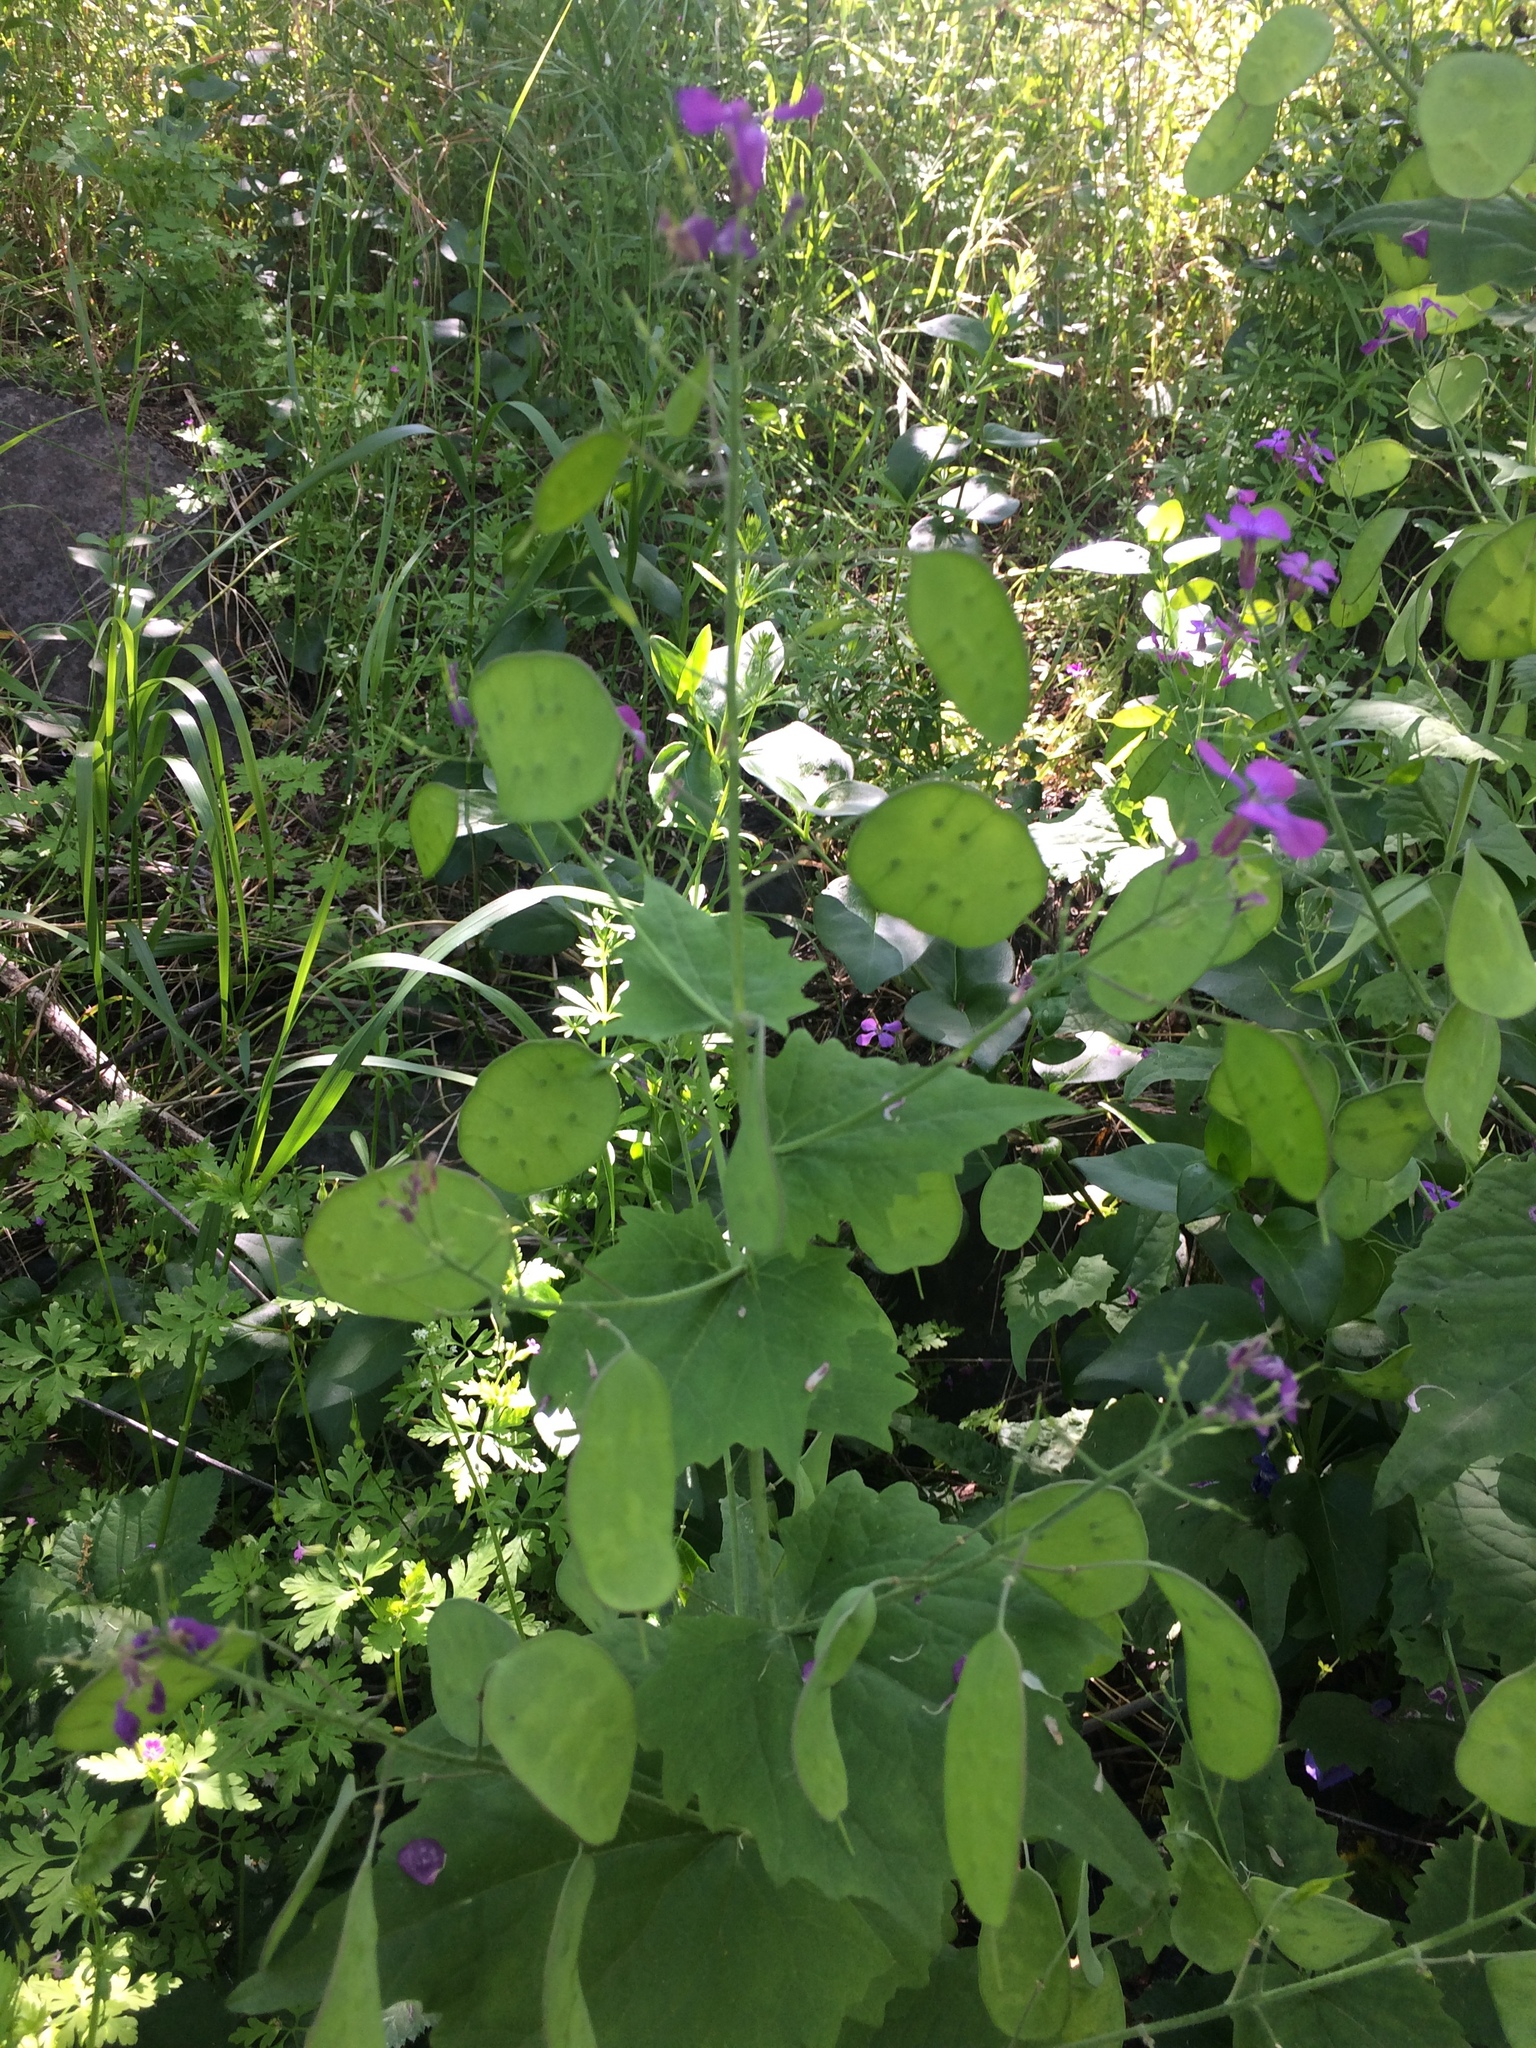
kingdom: Plantae
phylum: Tracheophyta
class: Magnoliopsida
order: Brassicales
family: Brassicaceae
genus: Lunaria
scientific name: Lunaria annua
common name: Honesty
